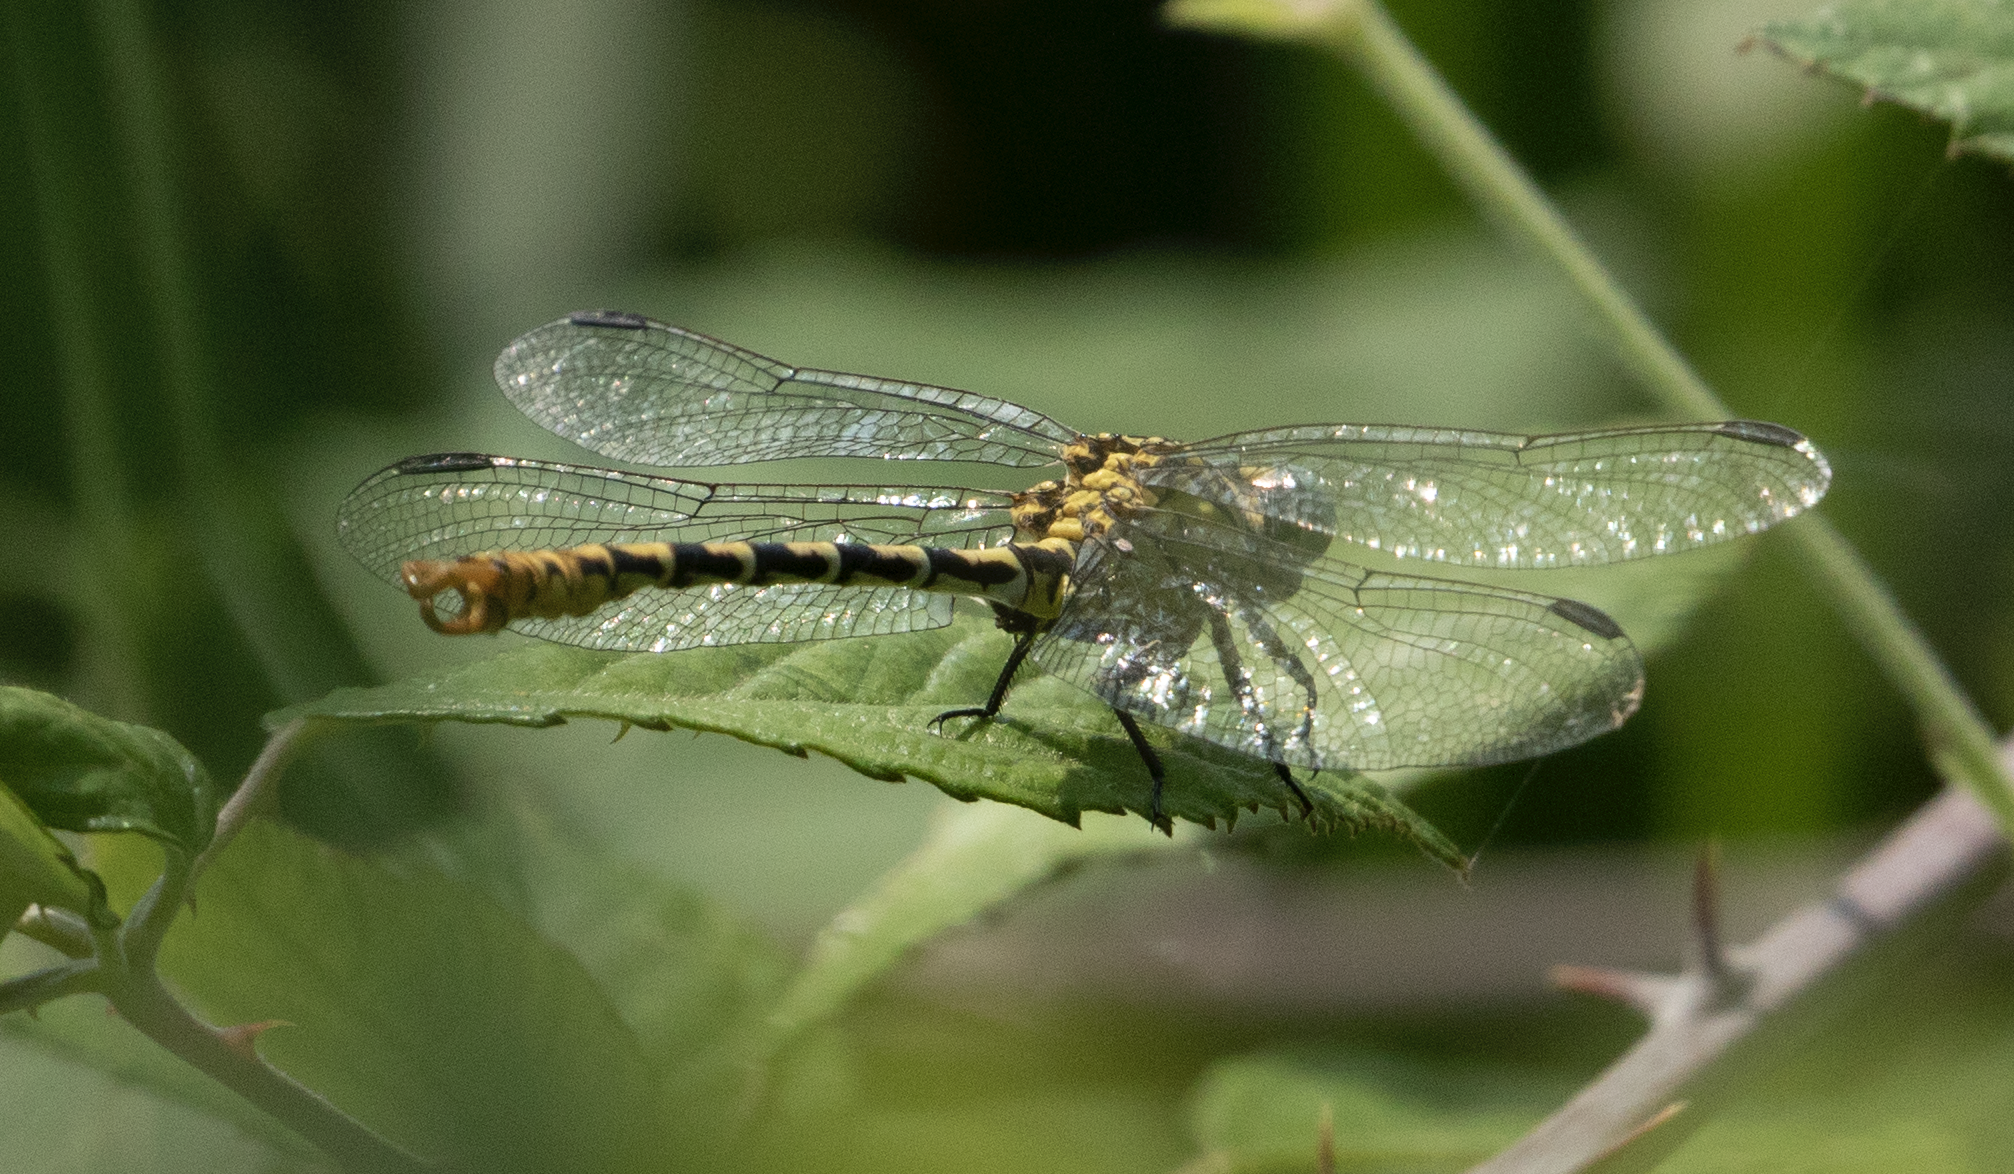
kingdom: Animalia
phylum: Arthropoda
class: Insecta
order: Odonata
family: Gomphidae
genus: Onychogomphus
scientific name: Onychogomphus forcipatus
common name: Small pincertail
